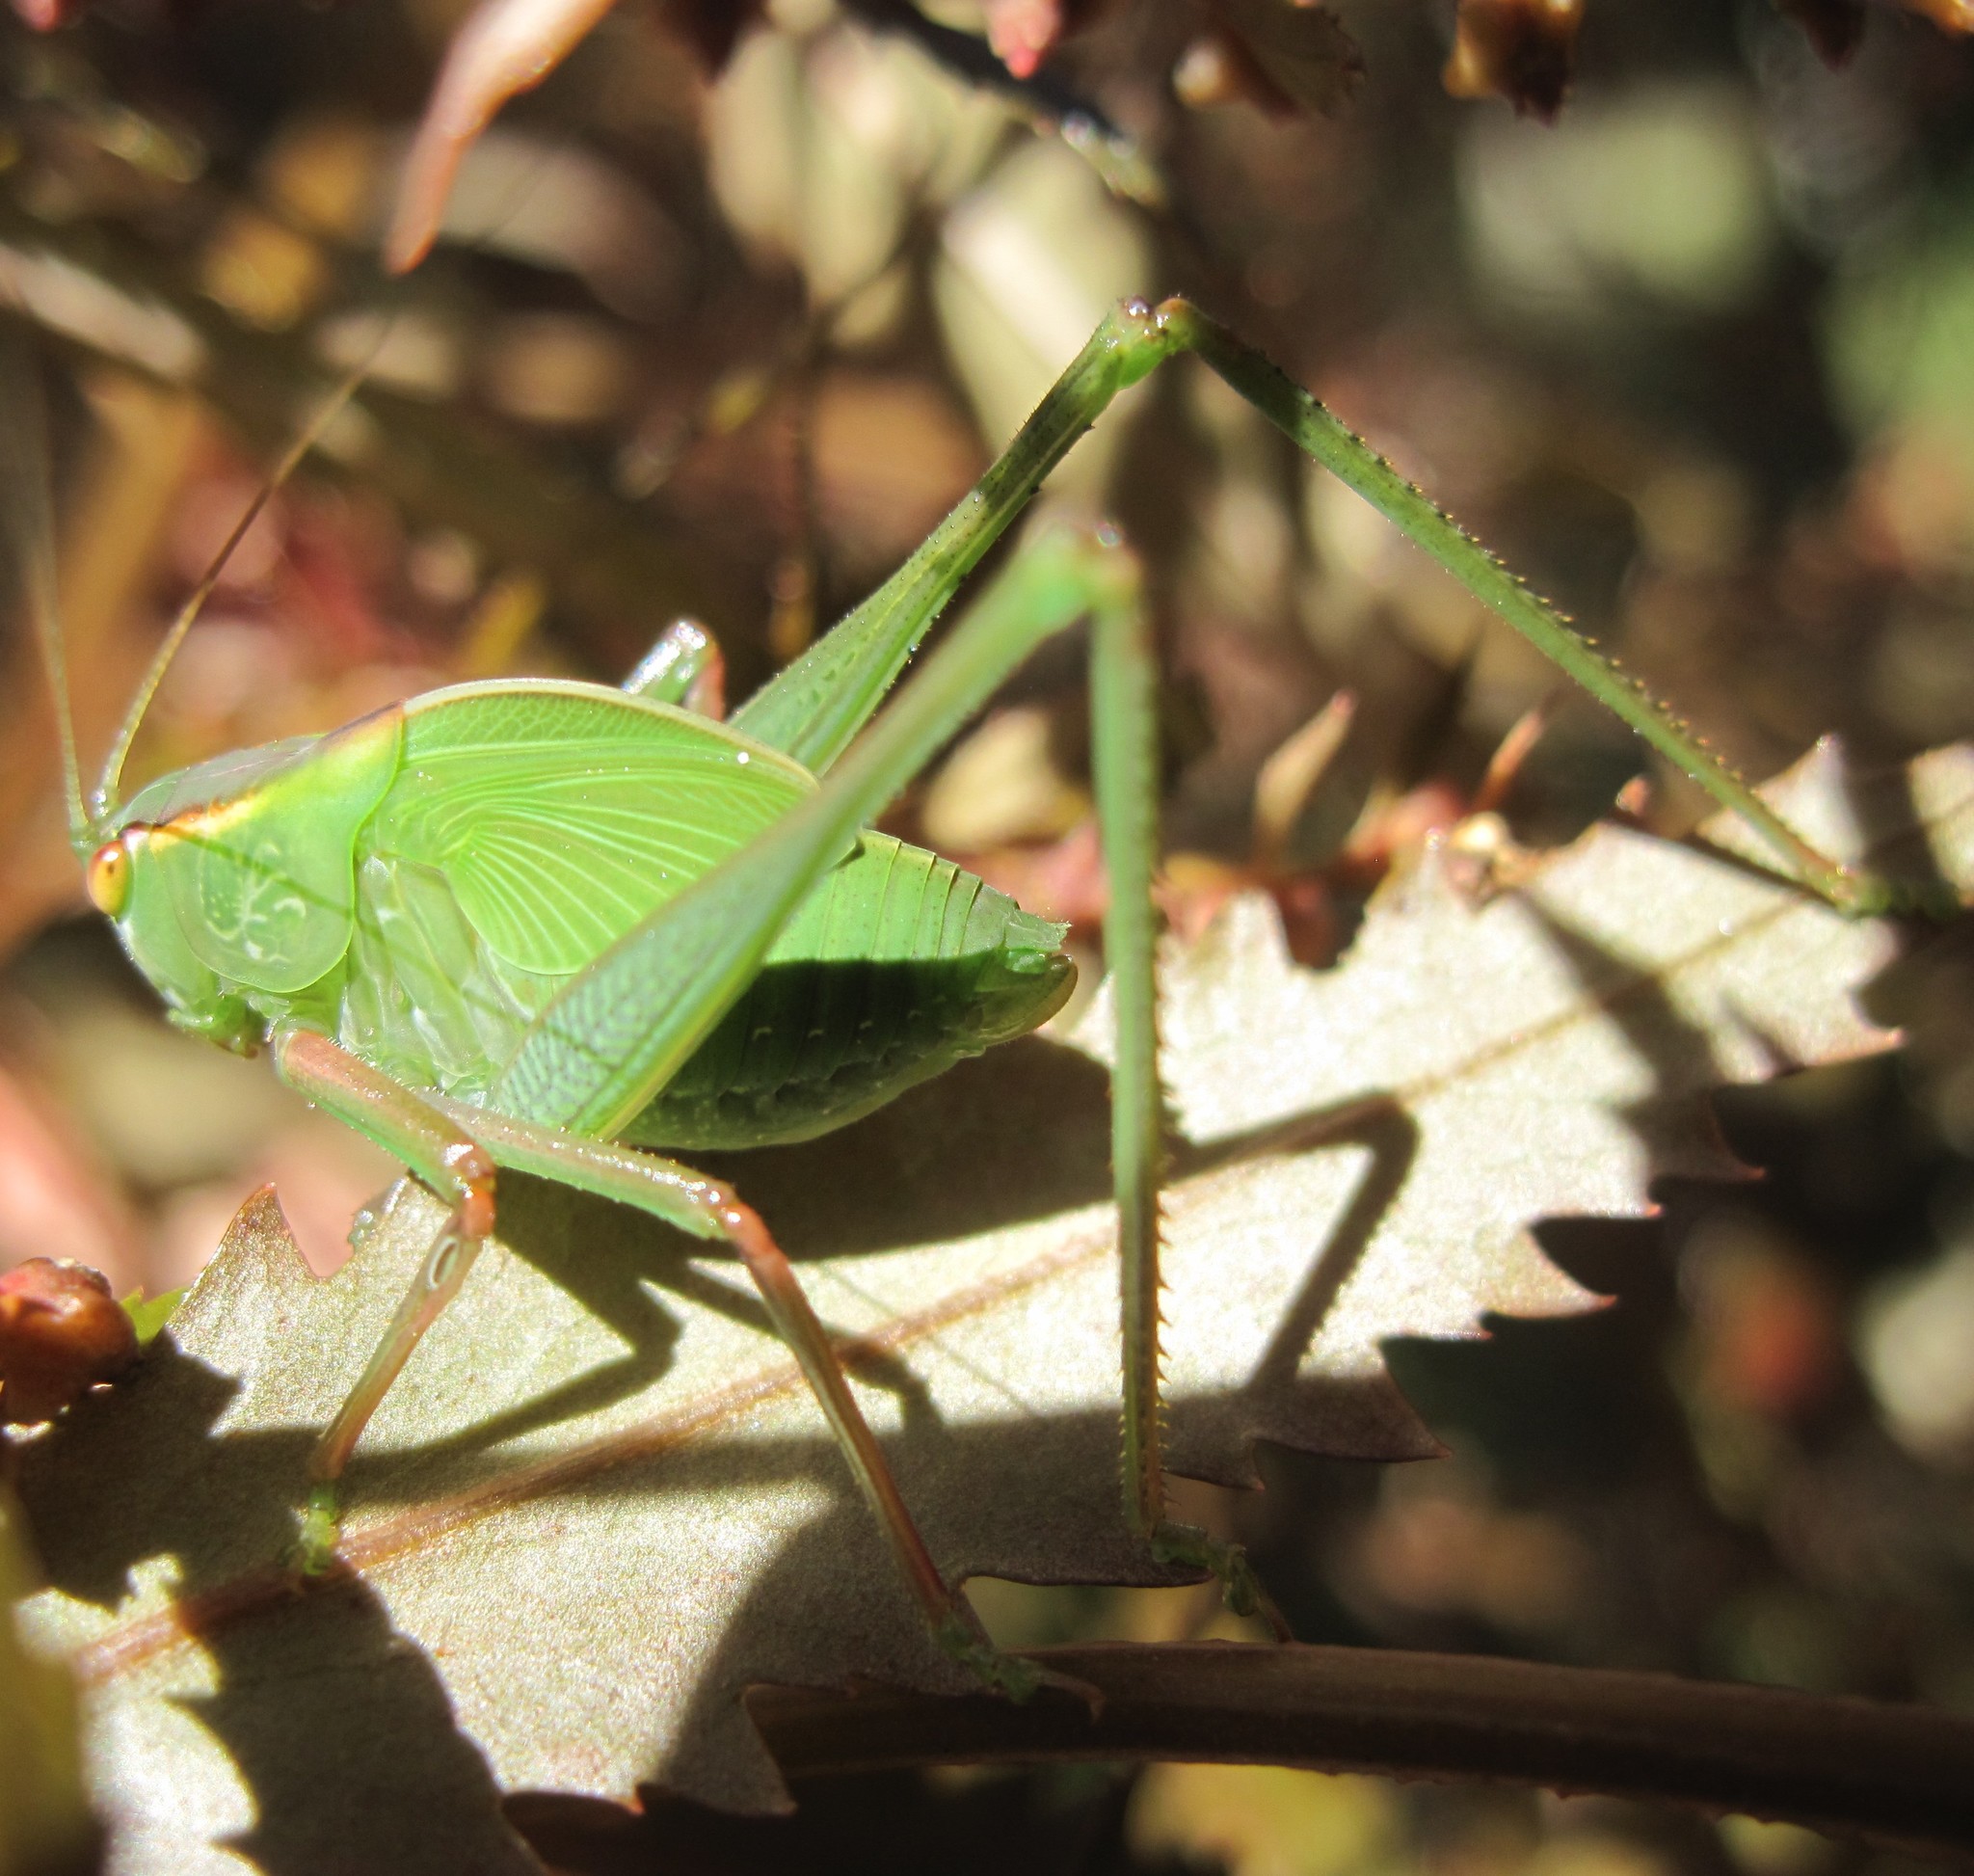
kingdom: Animalia
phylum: Arthropoda
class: Insecta
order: Orthoptera
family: Tettigoniidae
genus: Caedicia
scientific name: Caedicia simplex
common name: Common garden katydid
